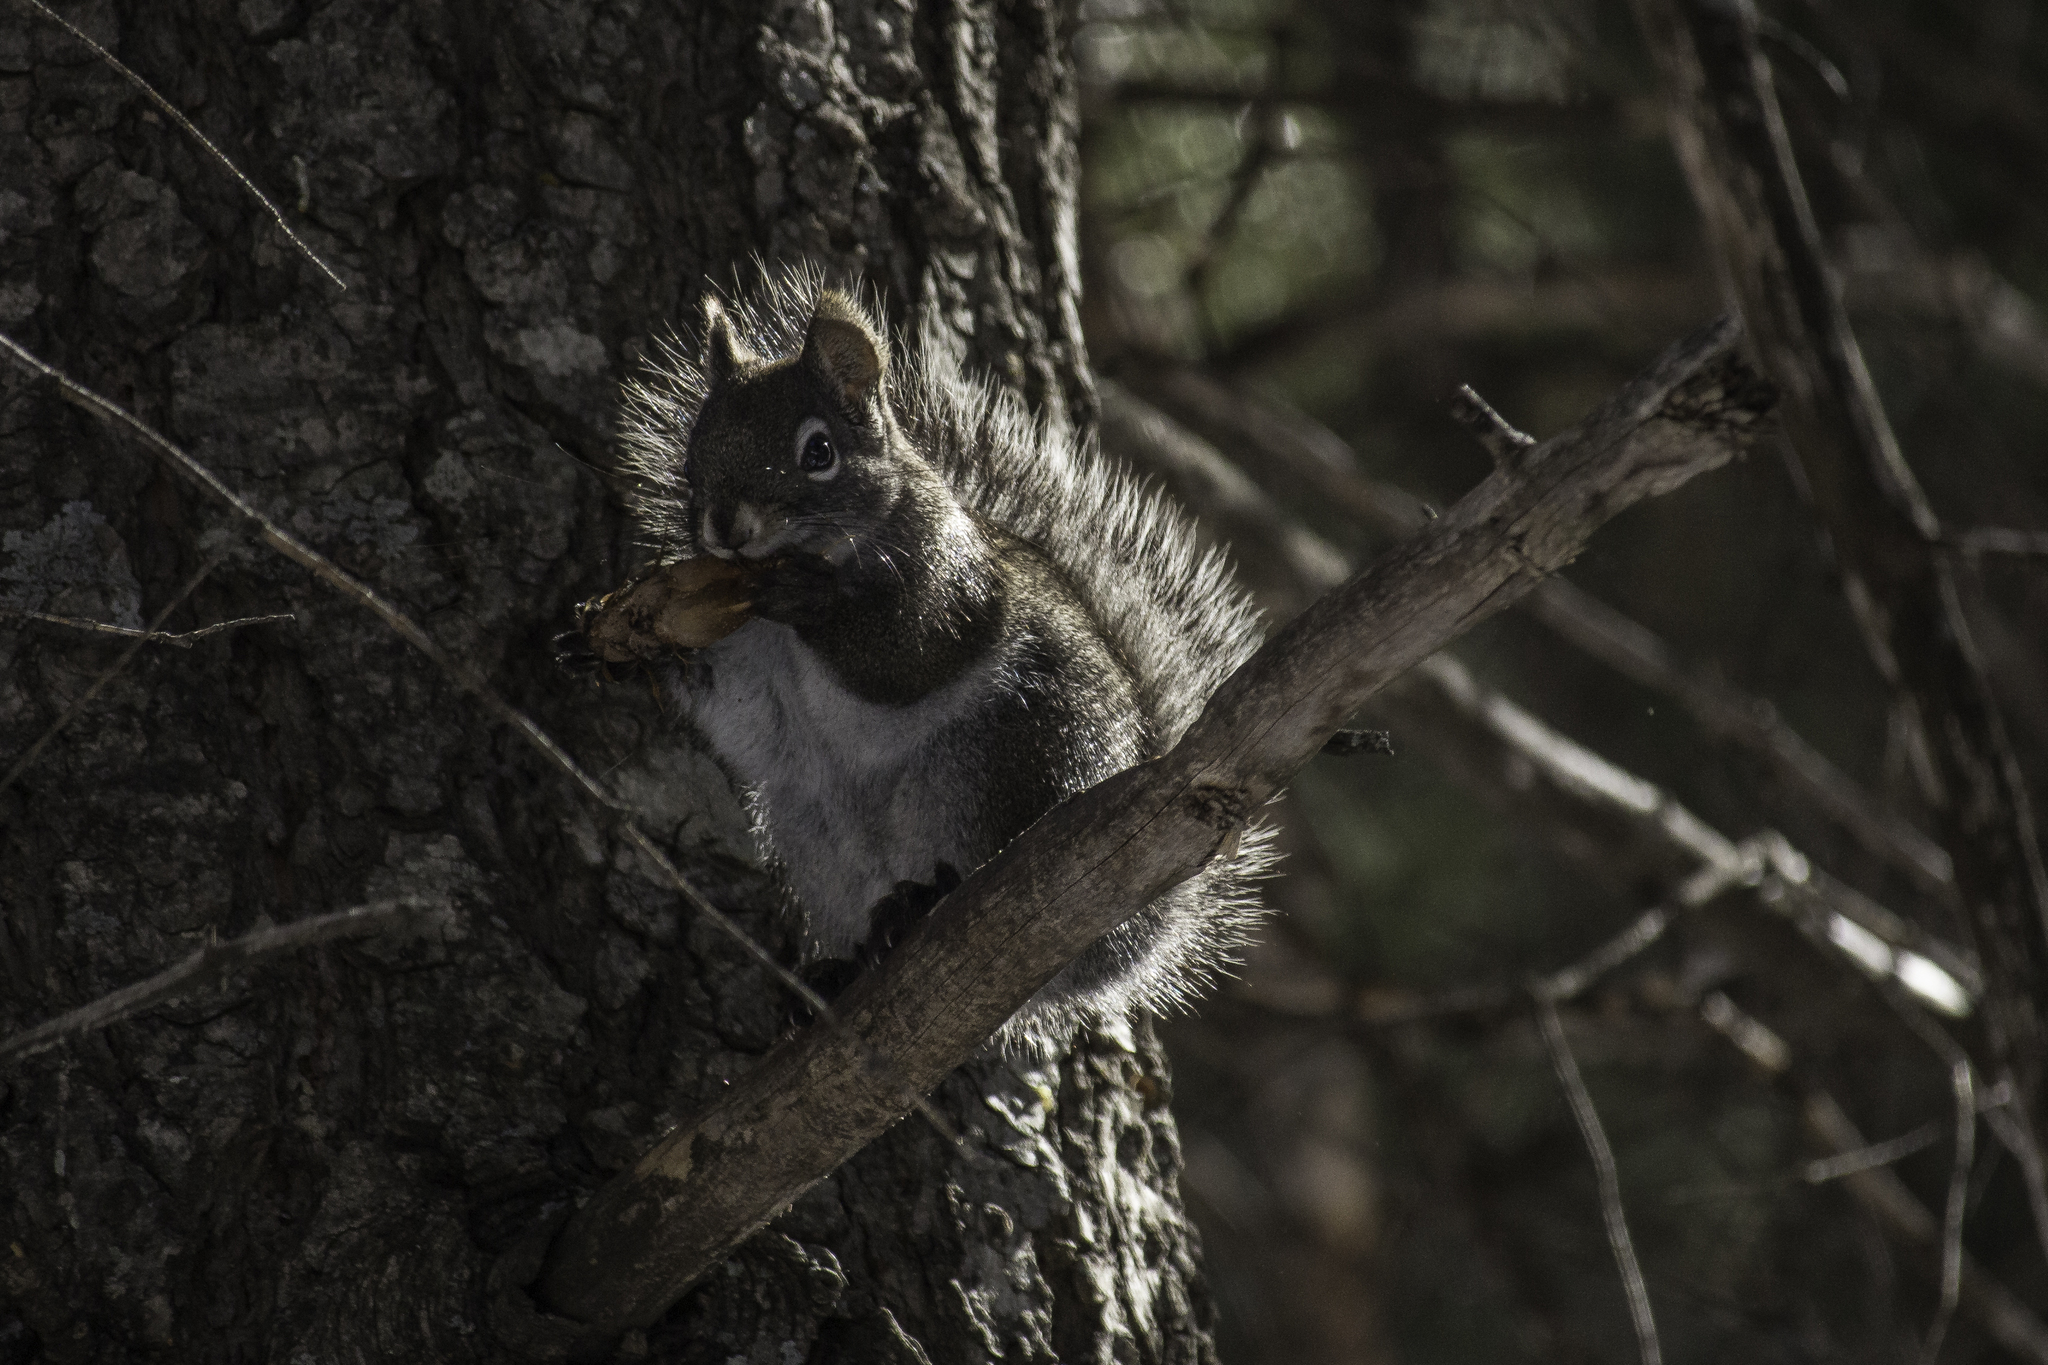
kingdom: Animalia
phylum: Chordata
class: Mammalia
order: Rodentia
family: Sciuridae
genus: Tamiasciurus
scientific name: Tamiasciurus hudsonicus
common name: Red squirrel
